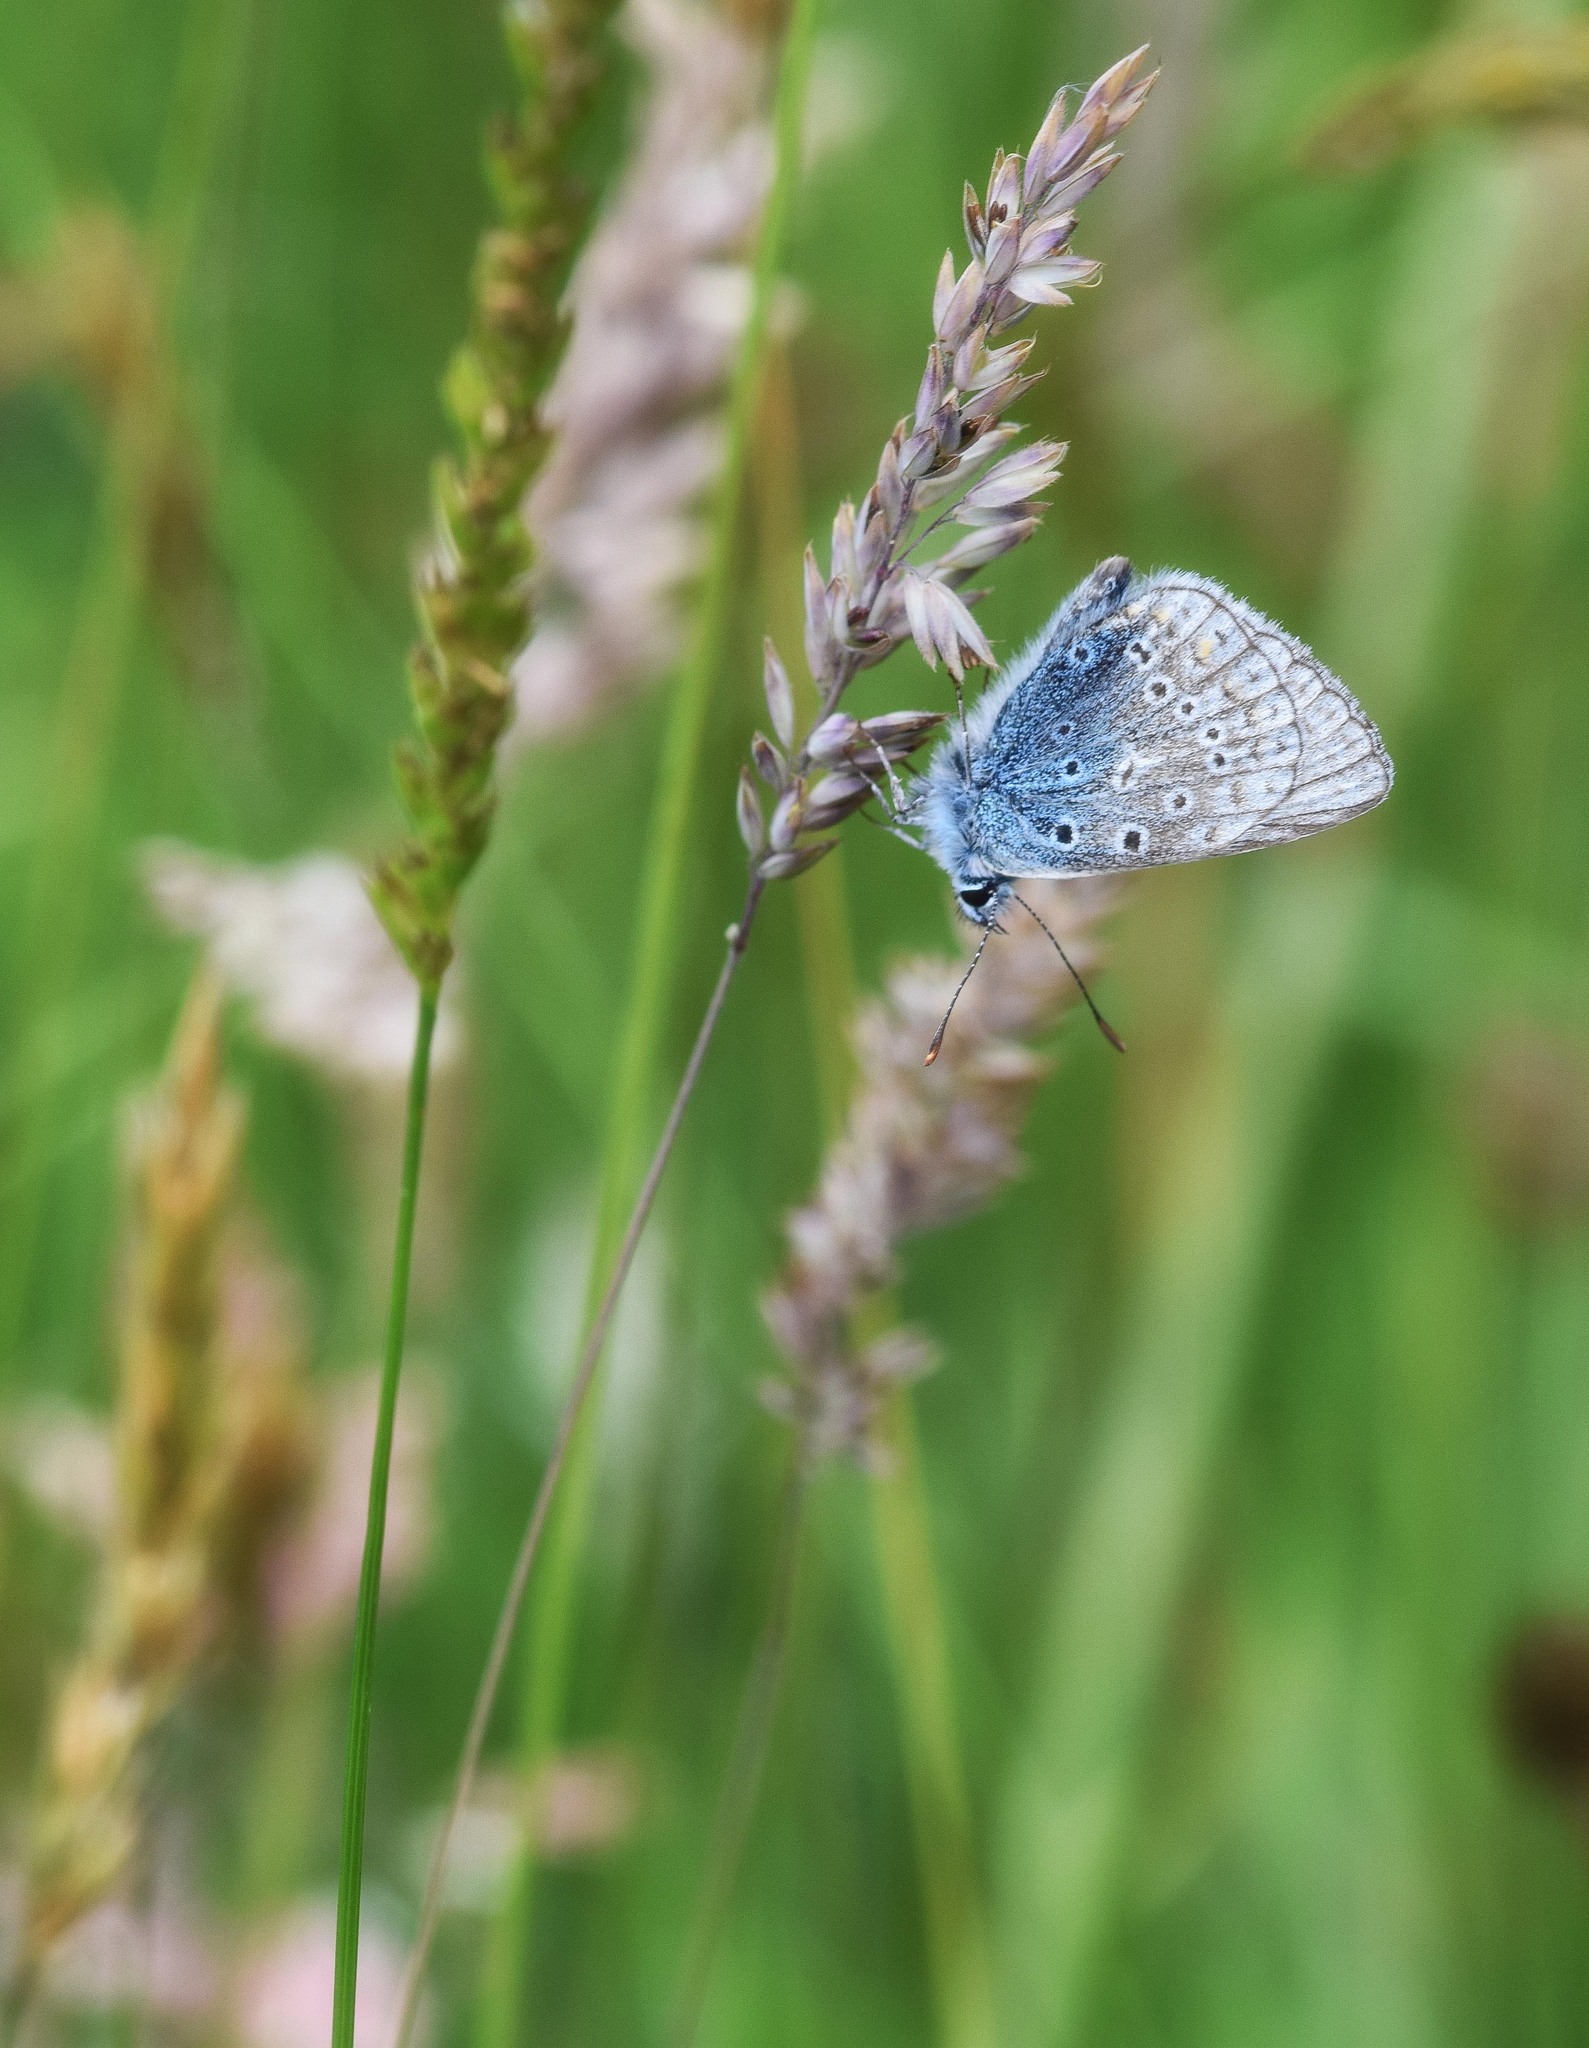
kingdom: Animalia
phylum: Arthropoda
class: Insecta
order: Lepidoptera
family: Lycaenidae
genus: Polyommatus
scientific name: Polyommatus icarus
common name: Common blue
